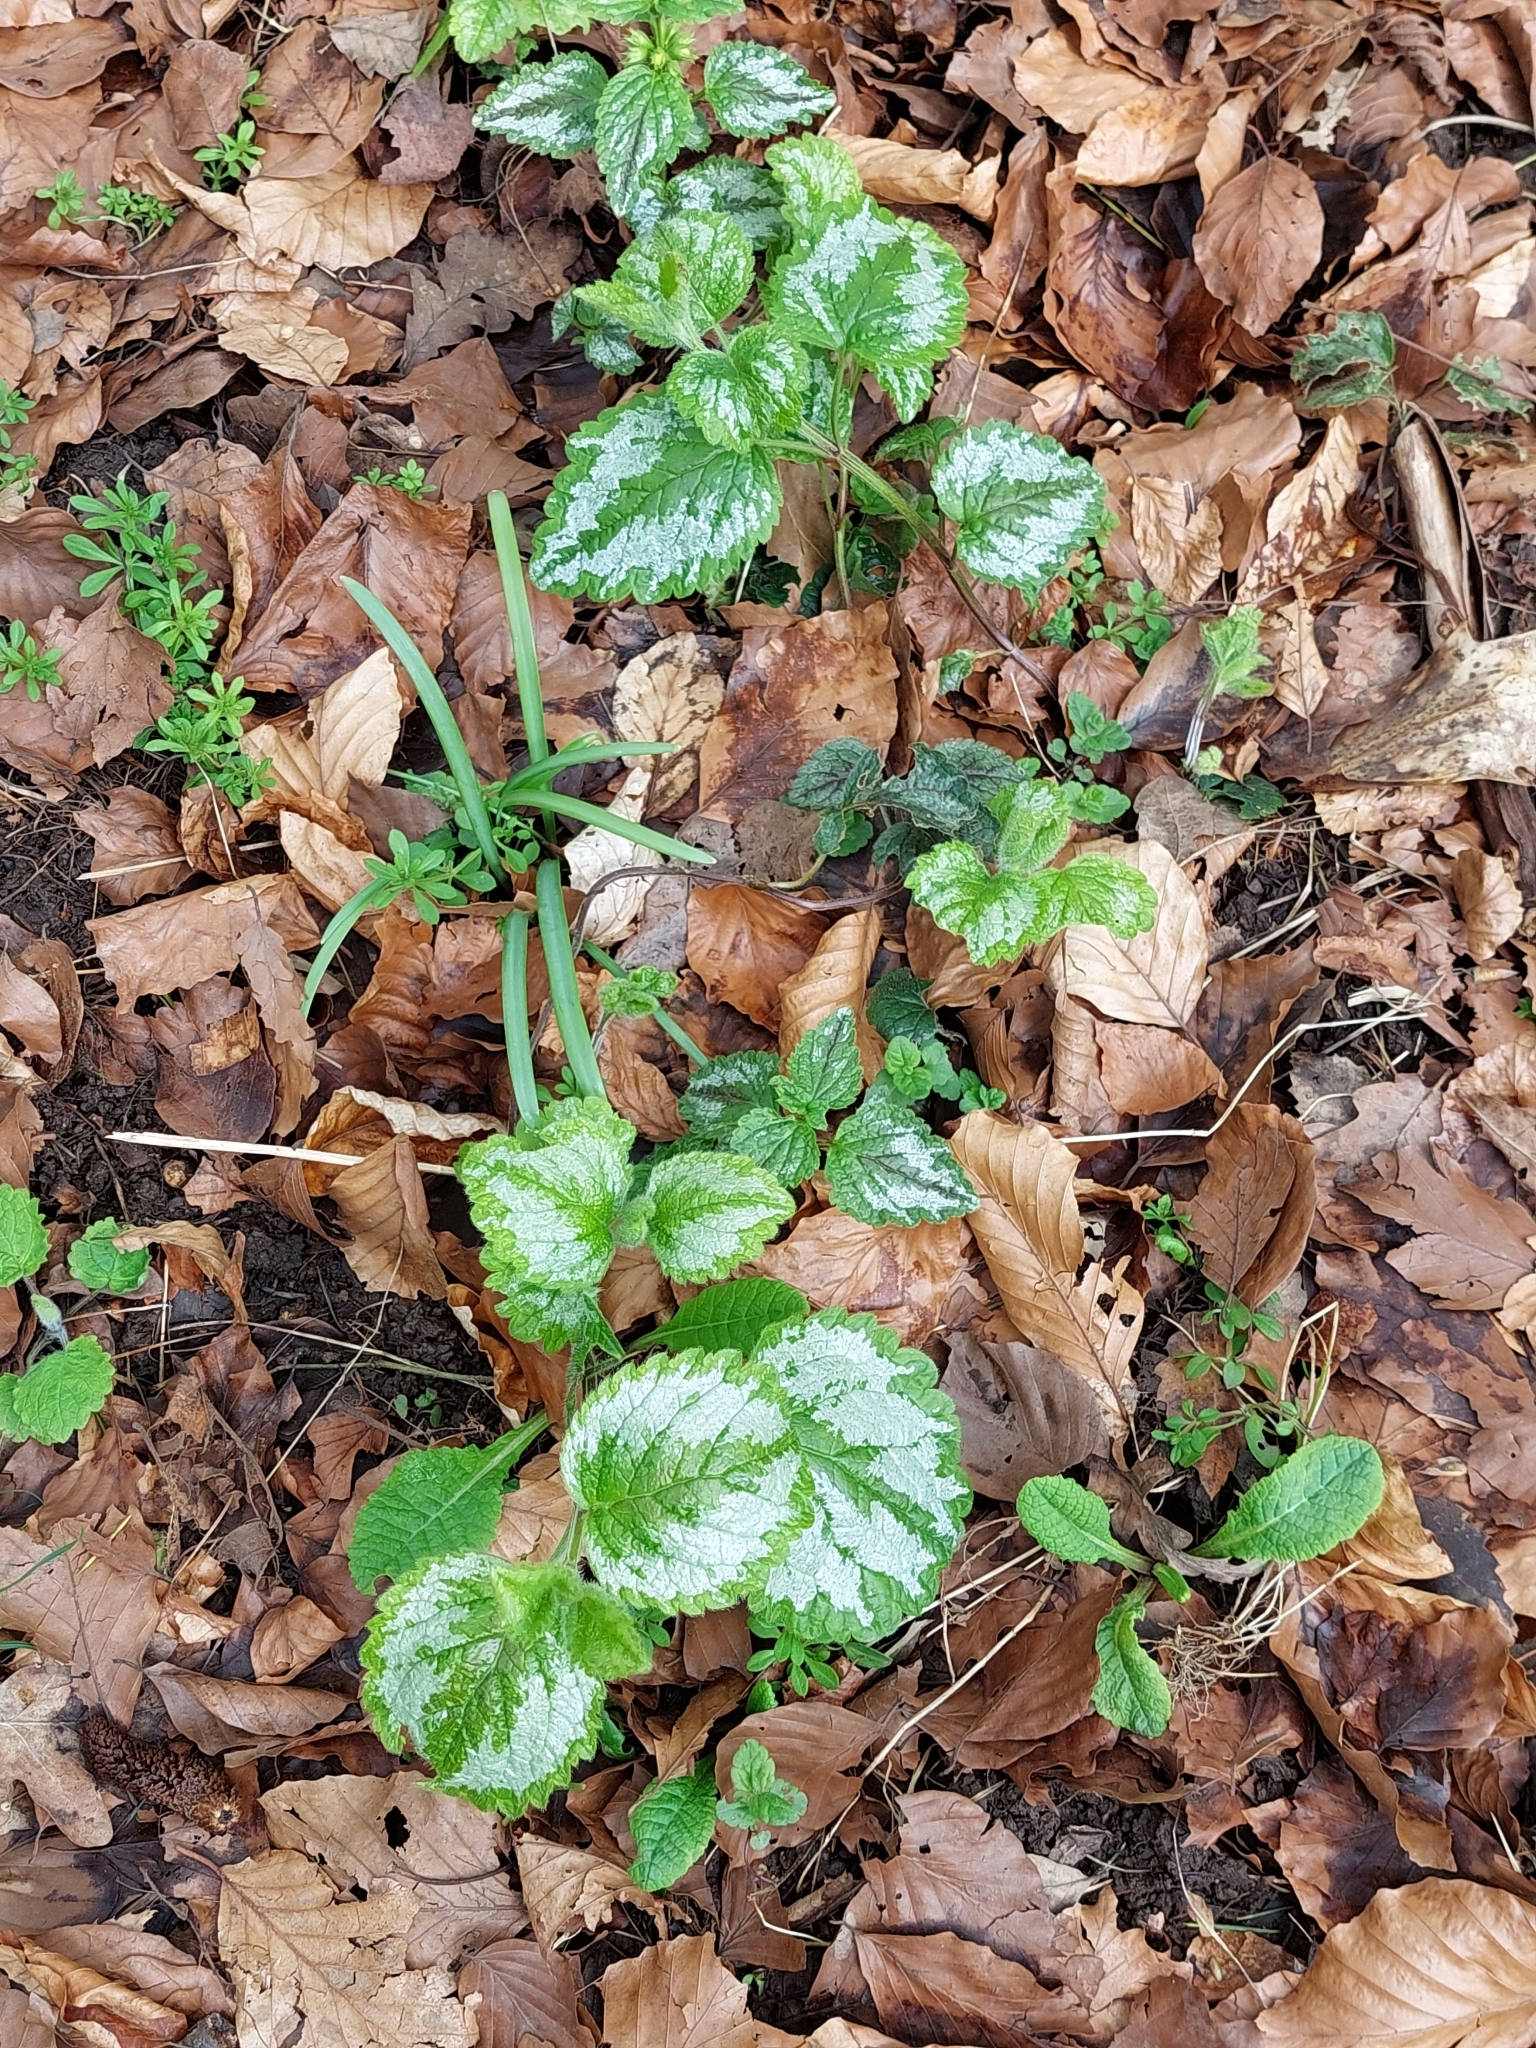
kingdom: Plantae
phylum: Tracheophyta
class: Magnoliopsida
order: Lamiales
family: Lamiaceae
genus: Lamium
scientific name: Lamium galeobdolon
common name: Yellow archangel
